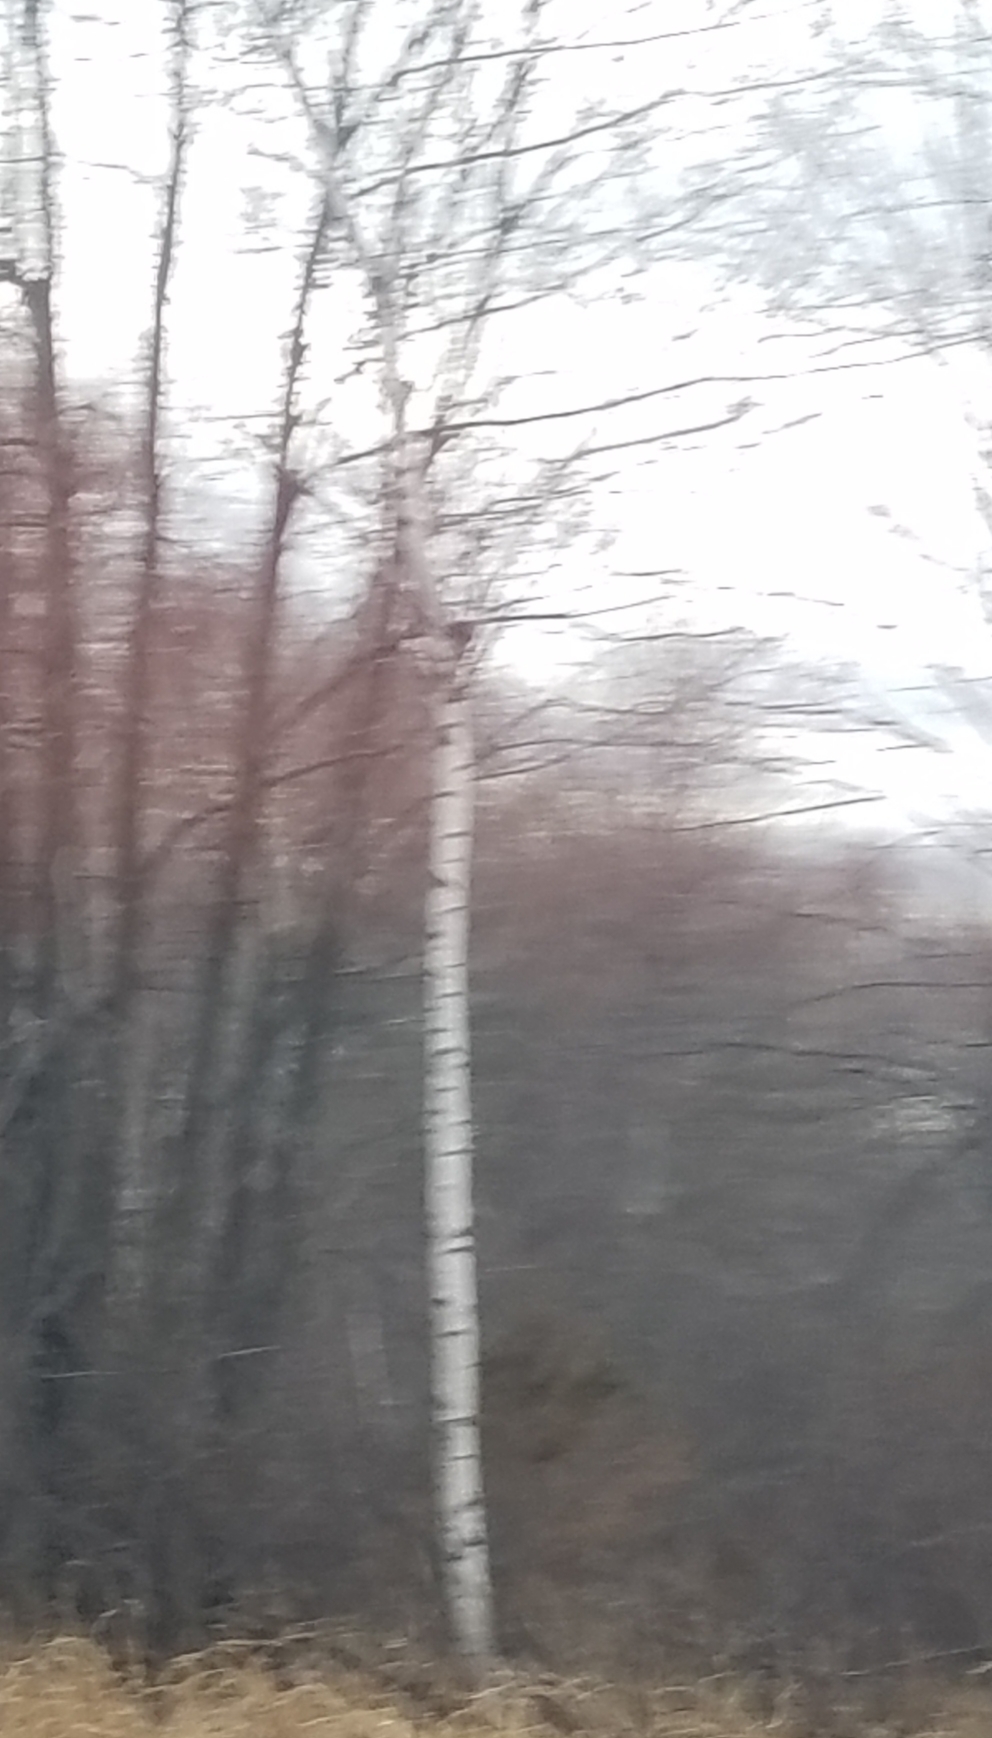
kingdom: Plantae
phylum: Tracheophyta
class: Magnoliopsida
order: Malpighiales
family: Salicaceae
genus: Populus
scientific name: Populus tremuloides
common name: Quaking aspen
